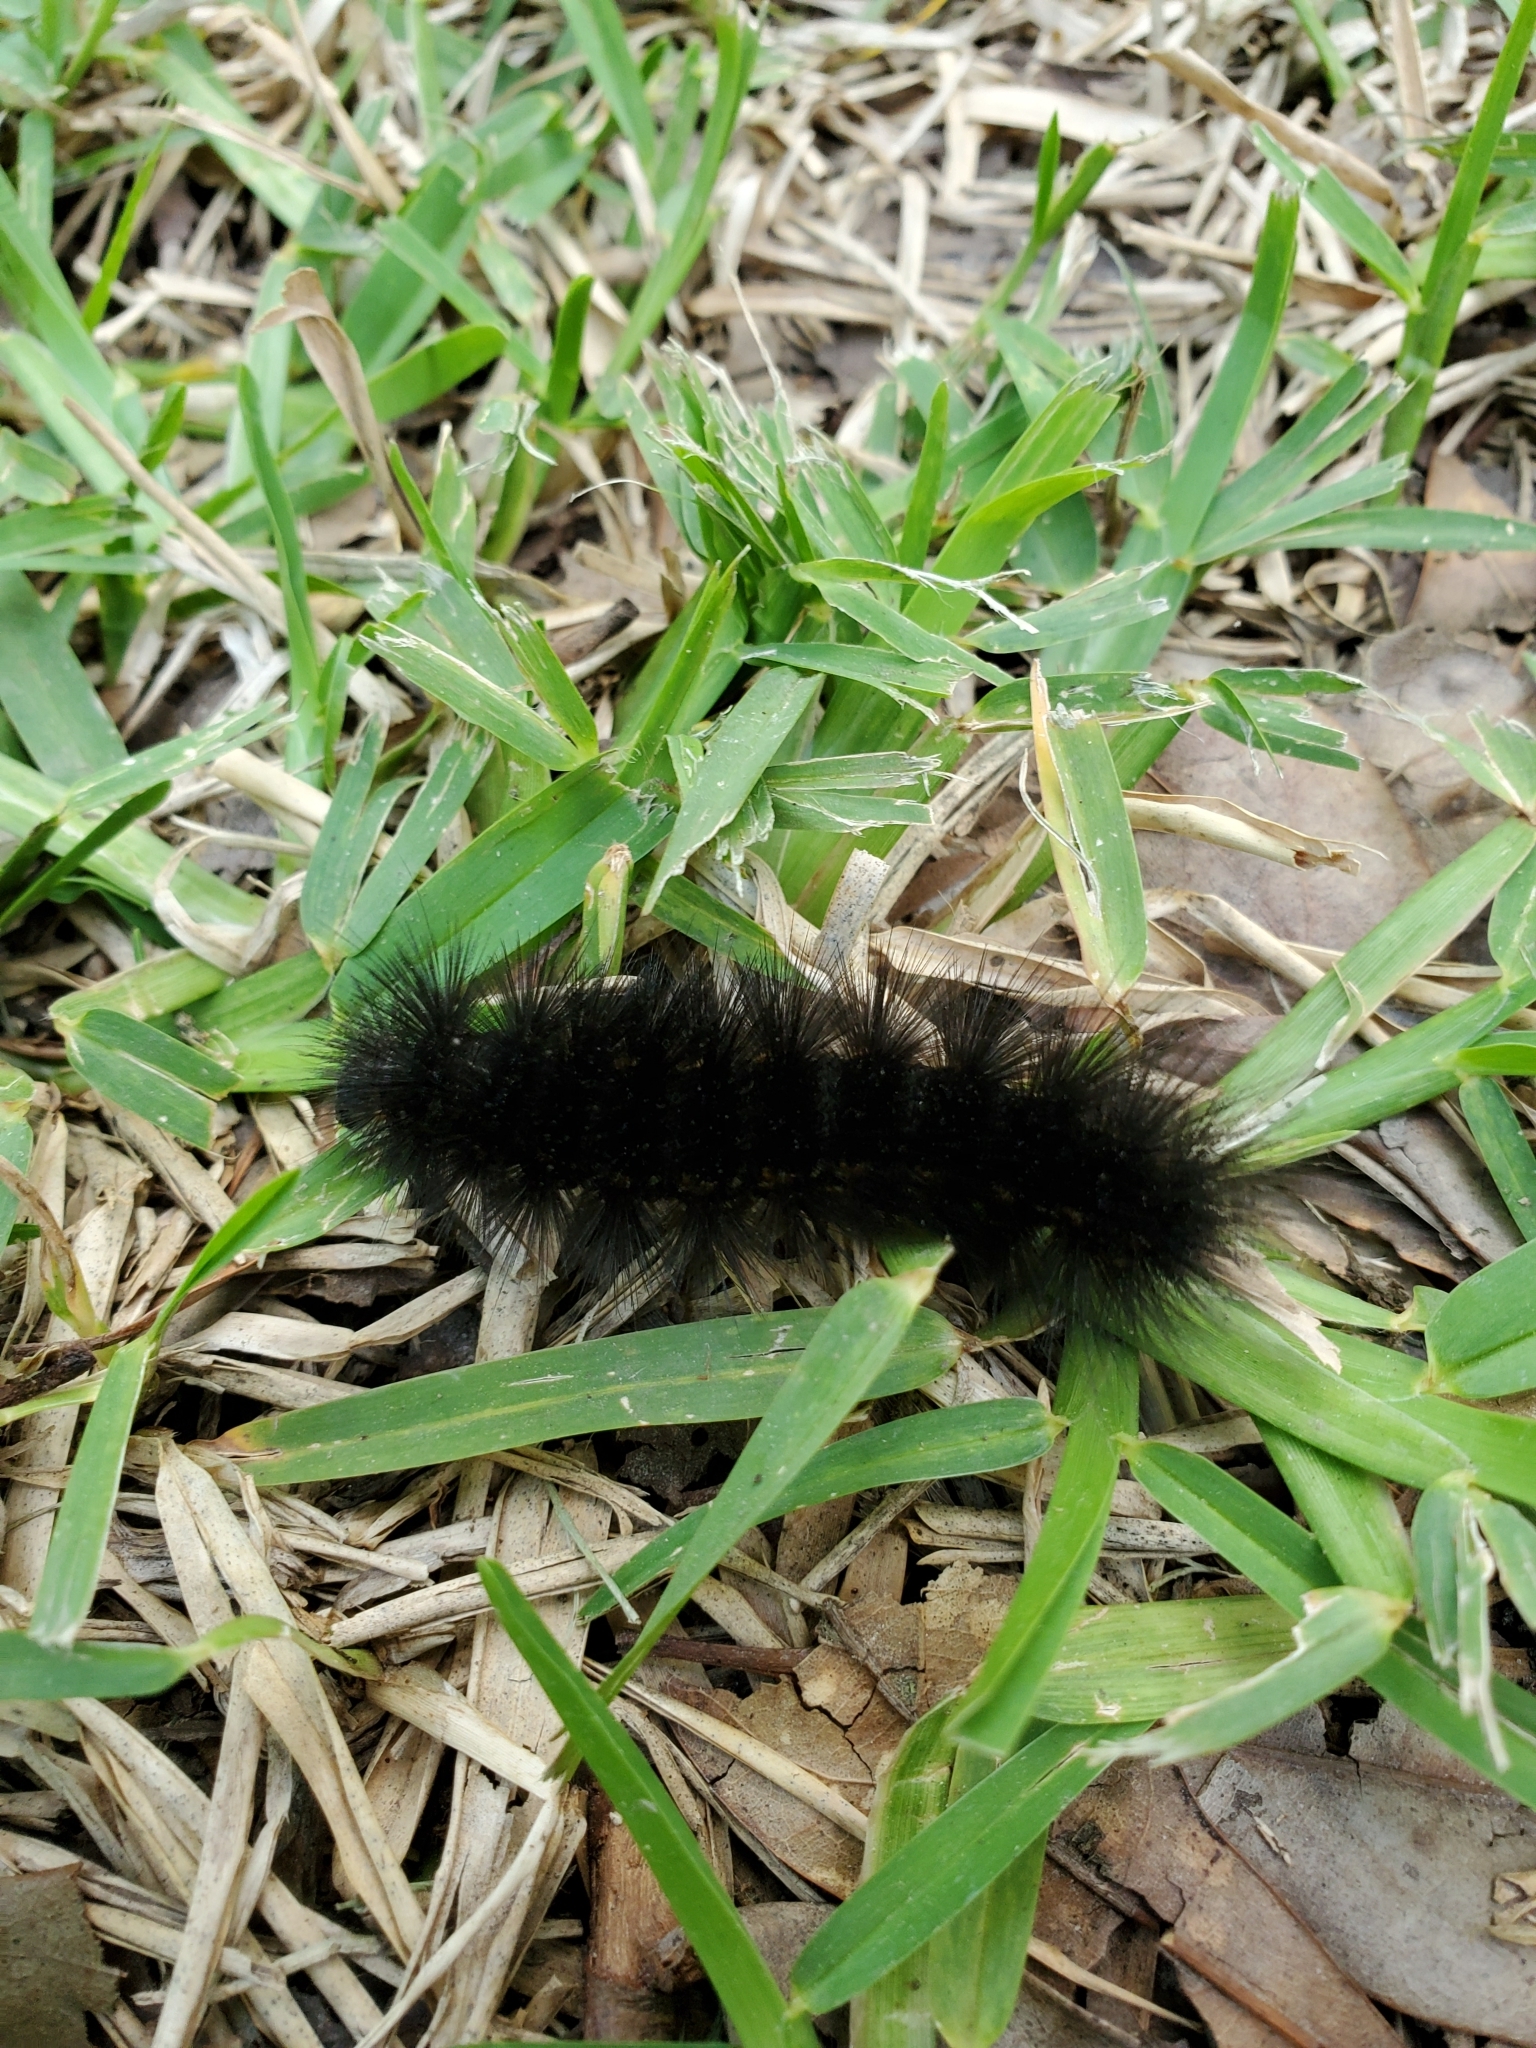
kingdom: Animalia
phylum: Arthropoda
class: Insecta
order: Lepidoptera
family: Erebidae
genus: Estigmene
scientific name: Estigmene acrea
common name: Salt marsh moth
